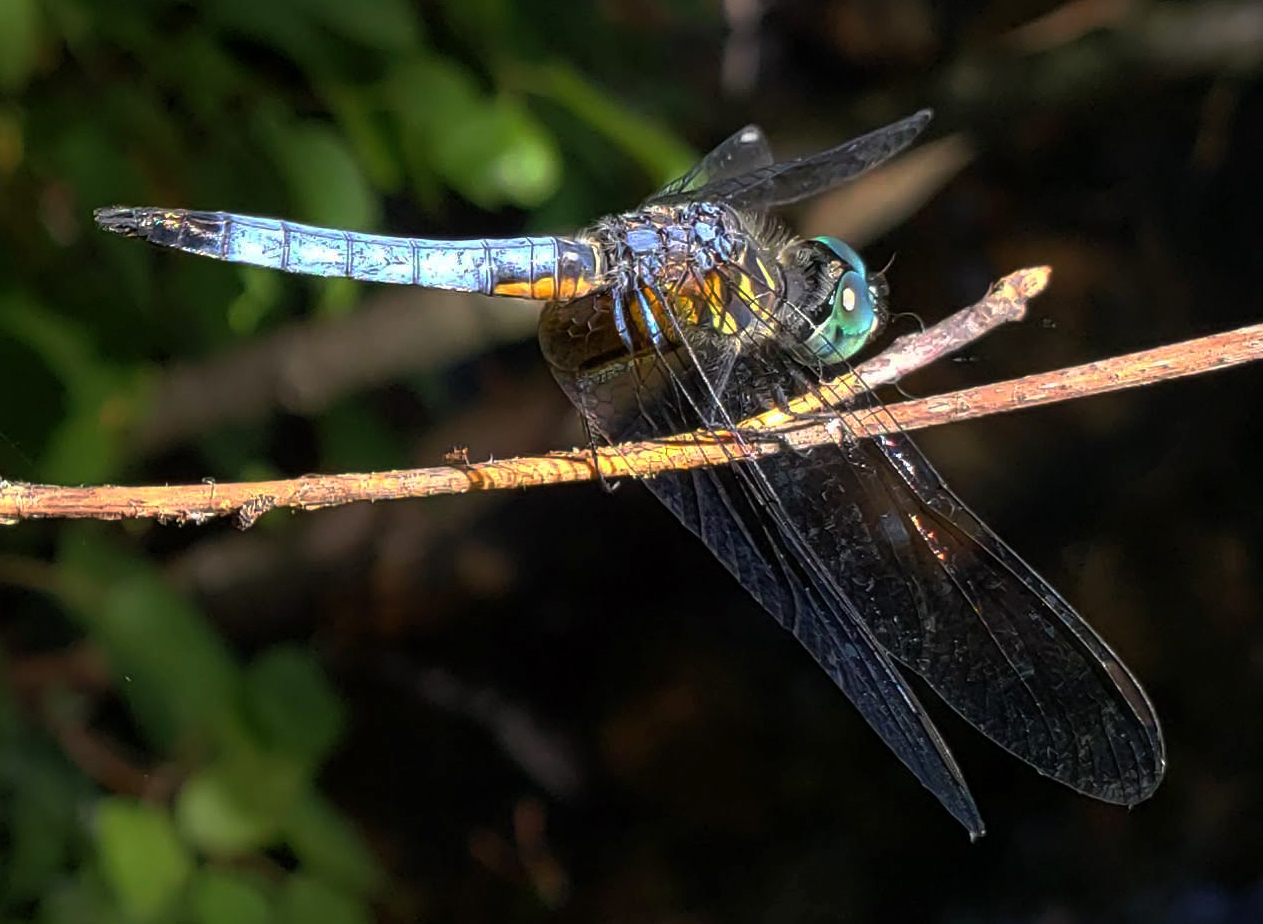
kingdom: Animalia
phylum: Arthropoda
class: Insecta
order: Odonata
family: Libellulidae
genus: Pachydiplax
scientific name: Pachydiplax longipennis
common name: Blue dasher
